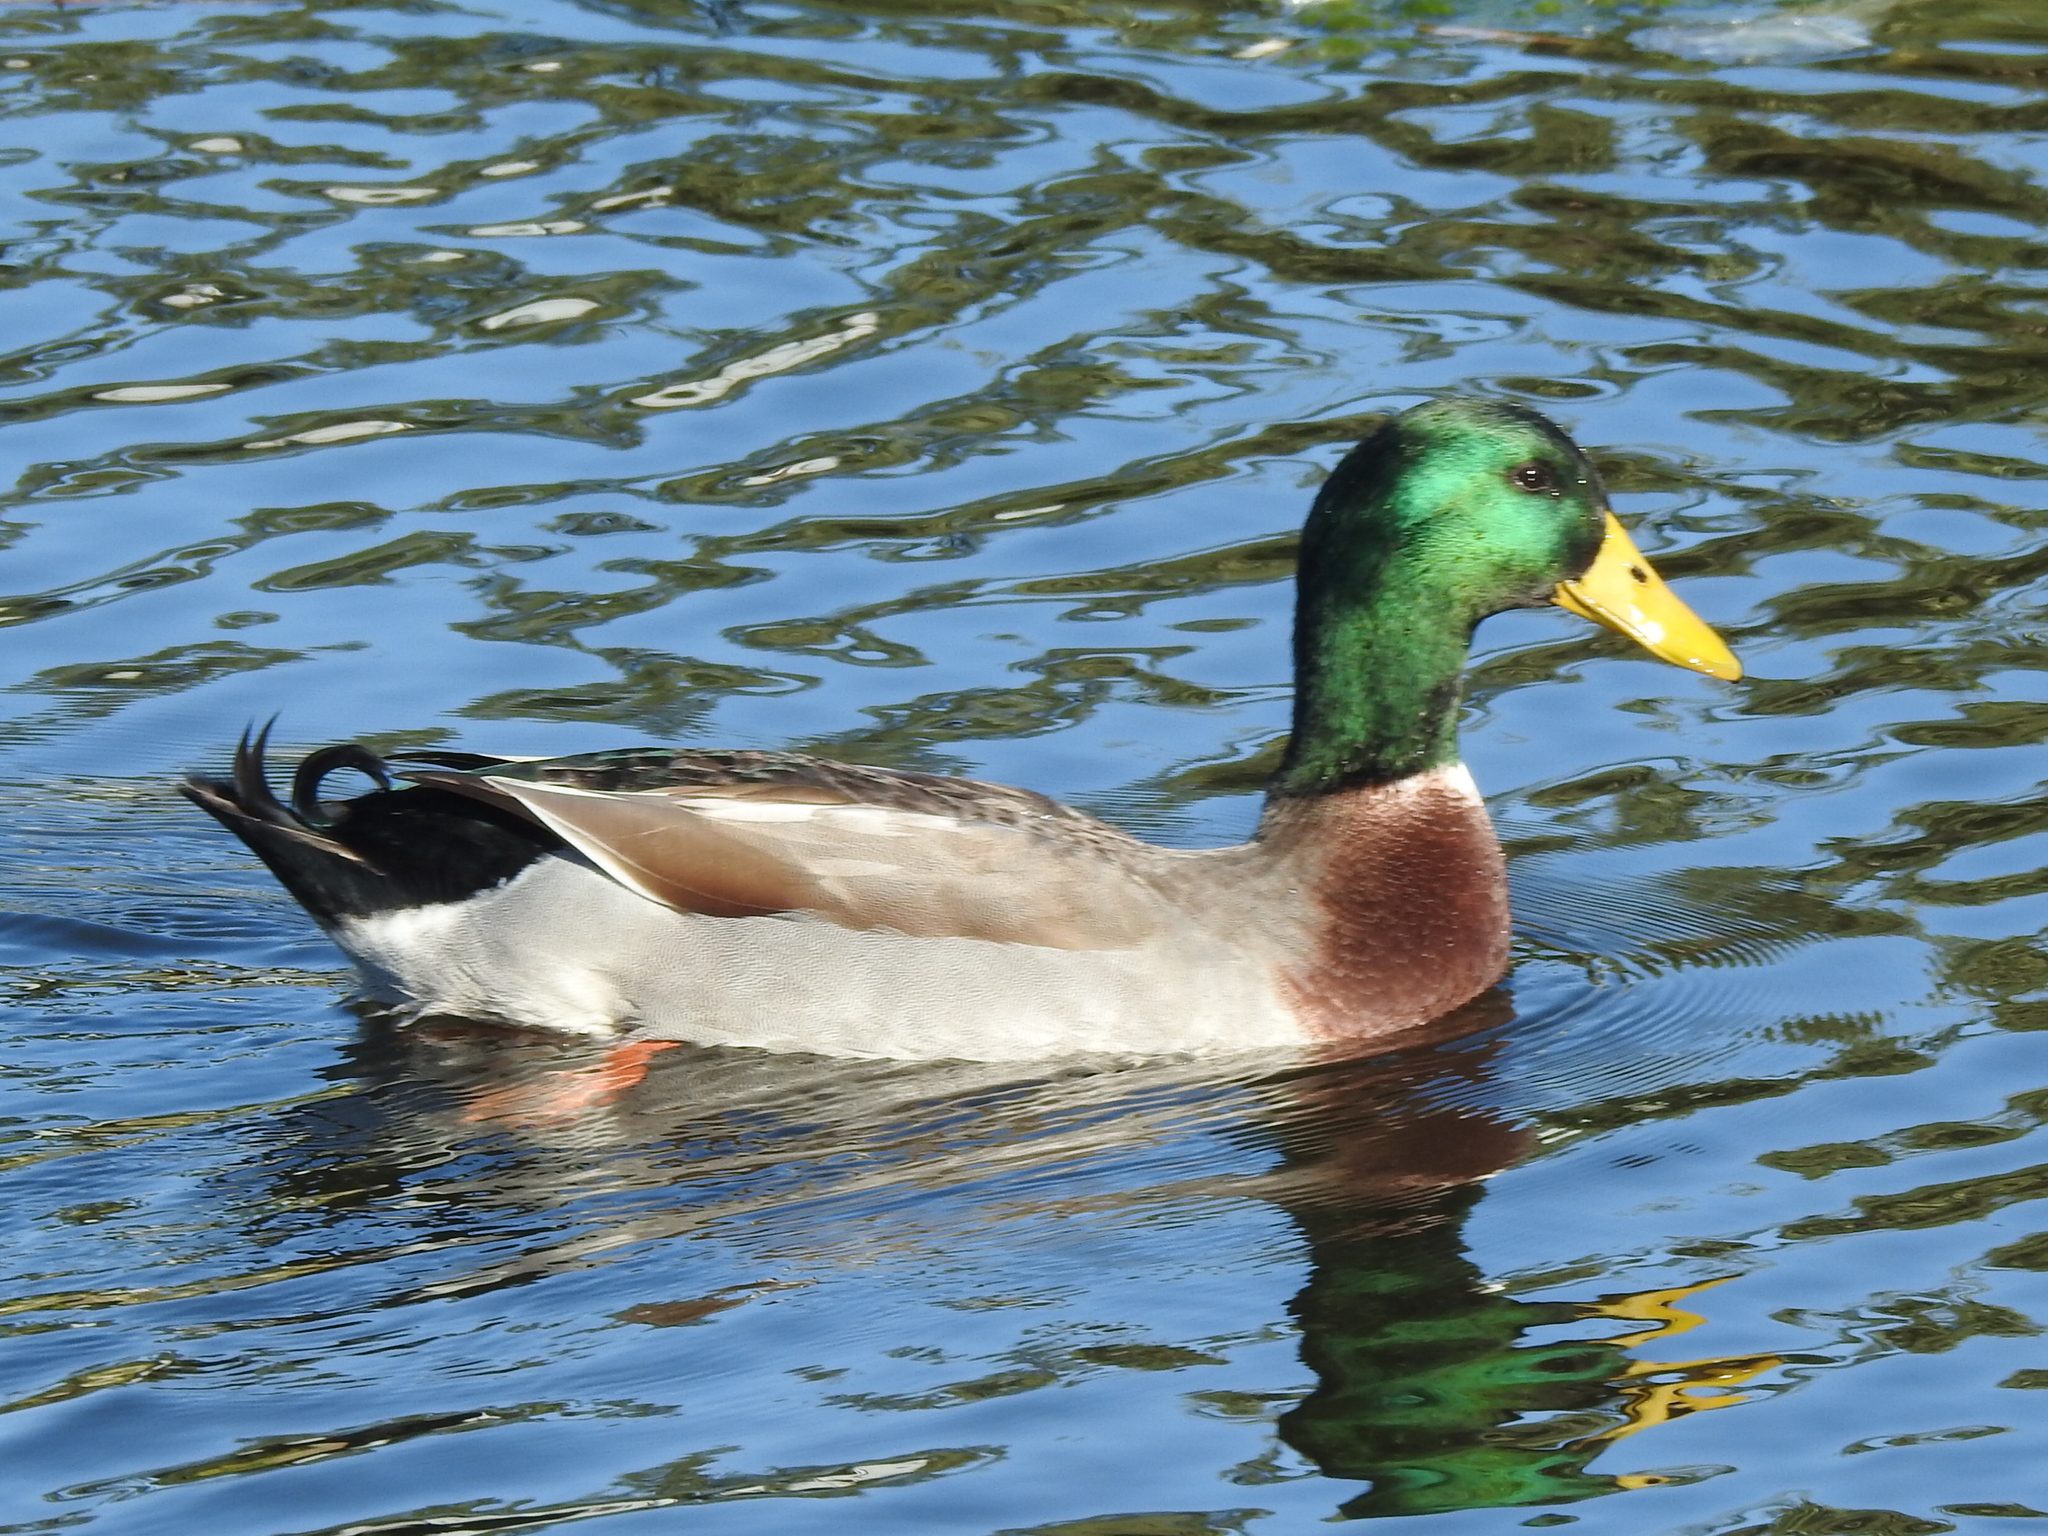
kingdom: Animalia
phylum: Chordata
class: Aves
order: Anseriformes
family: Anatidae
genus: Anas
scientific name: Anas platyrhynchos
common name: Mallard
